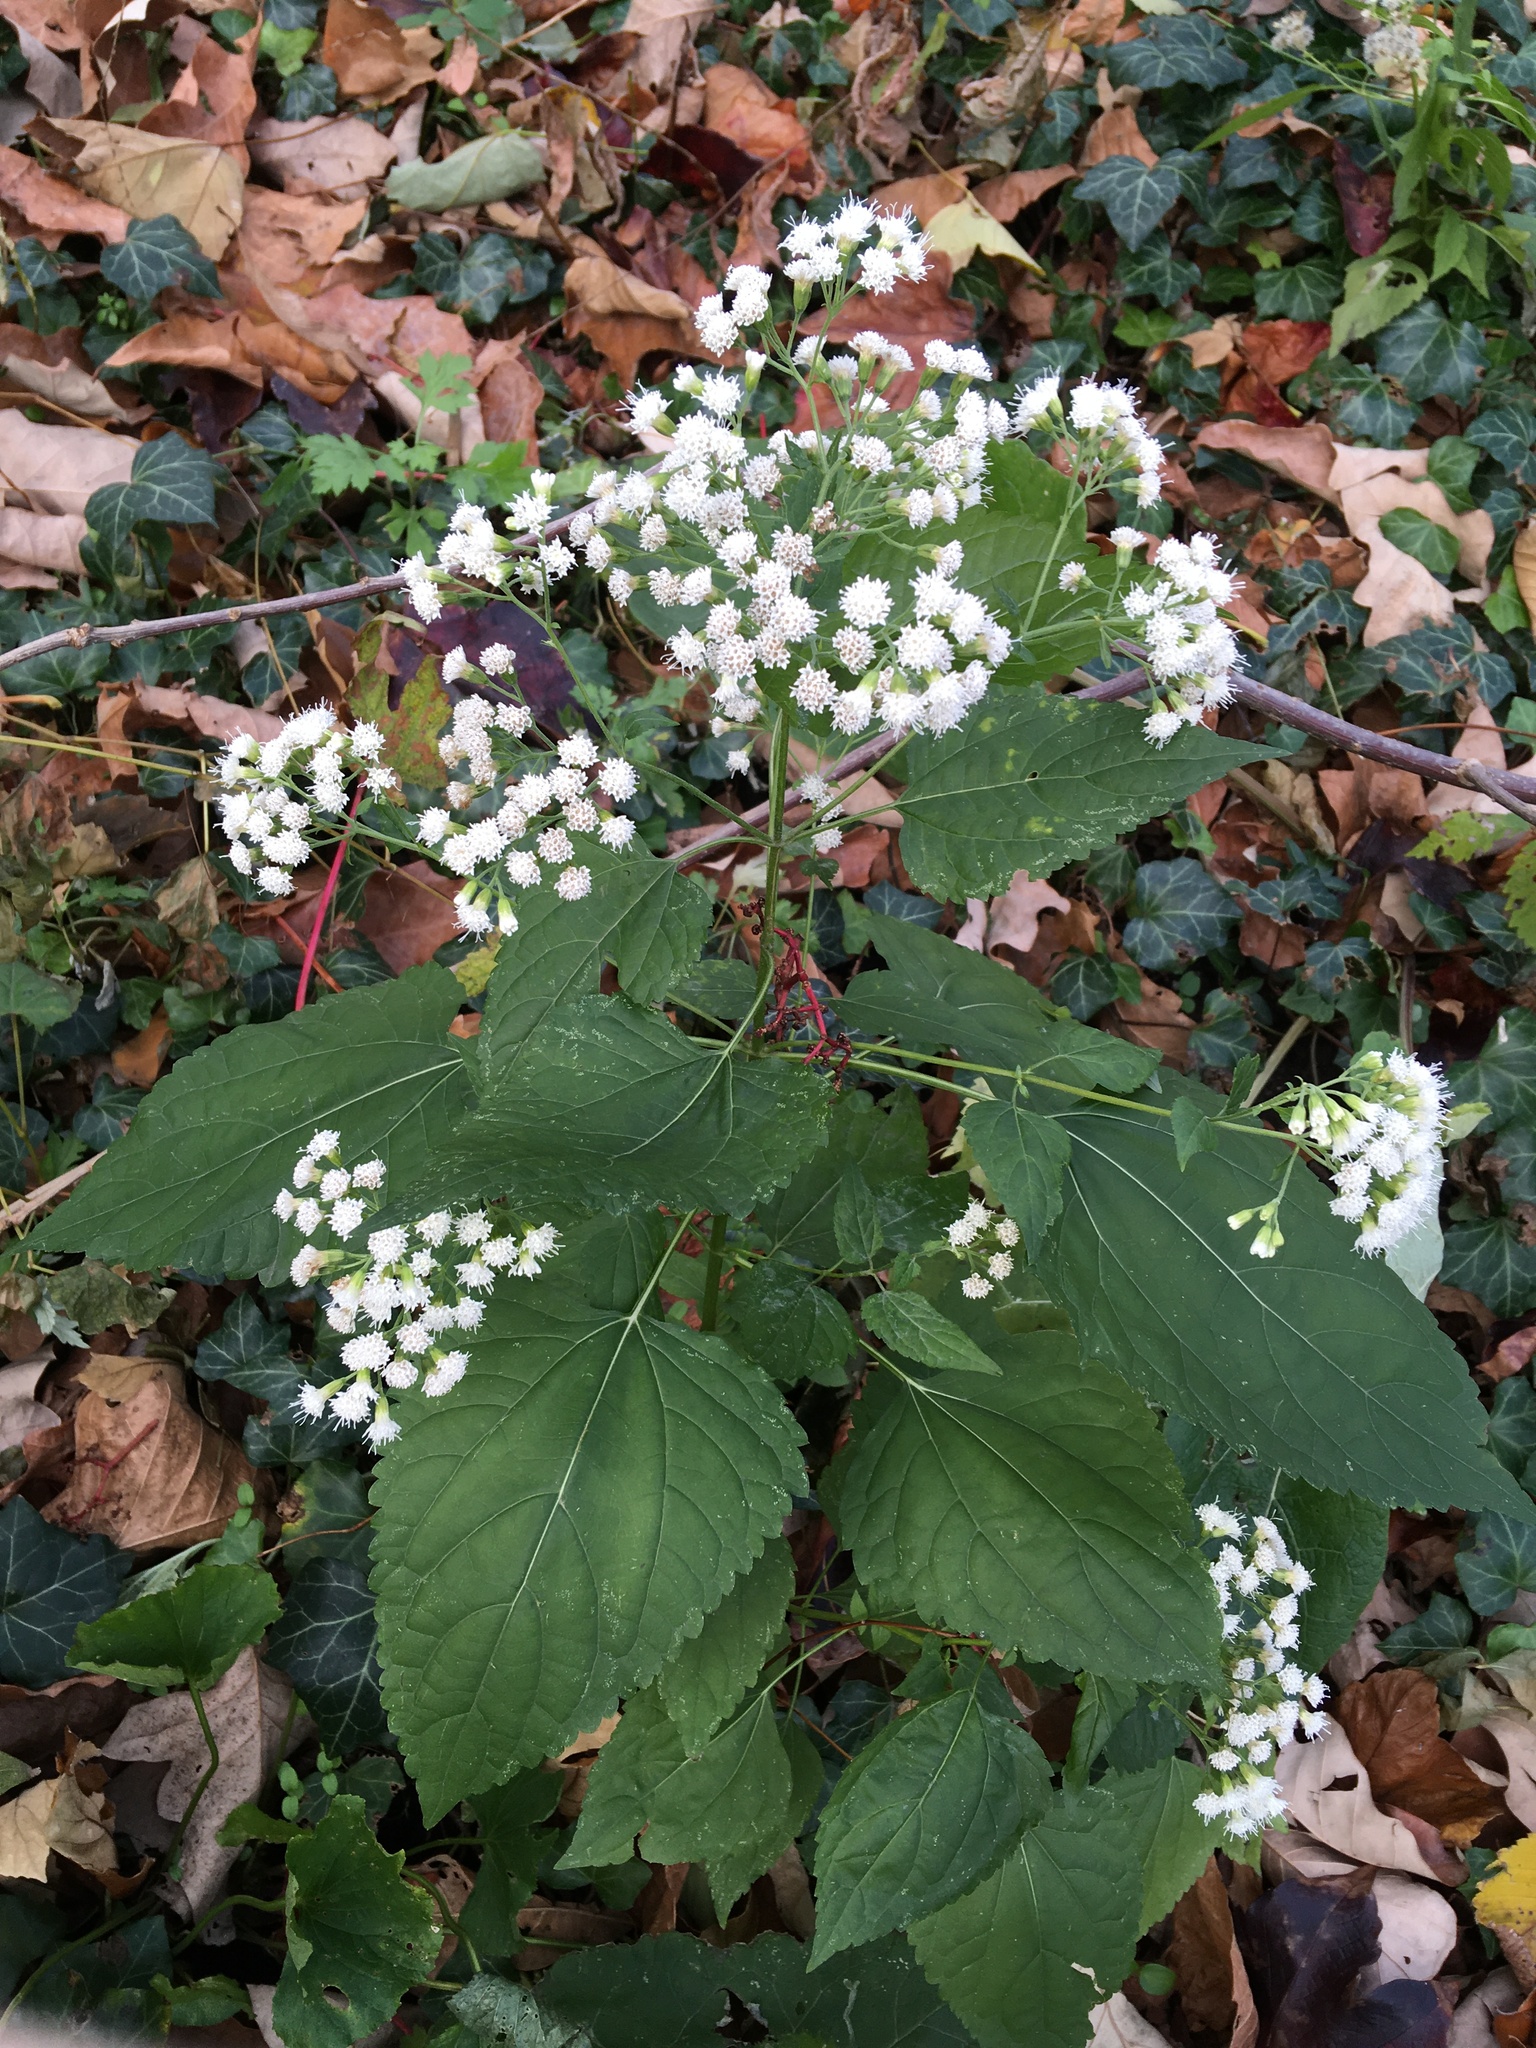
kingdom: Plantae
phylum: Tracheophyta
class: Magnoliopsida
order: Asterales
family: Asteraceae
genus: Ageratina
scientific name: Ageratina altissima
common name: White snakeroot
